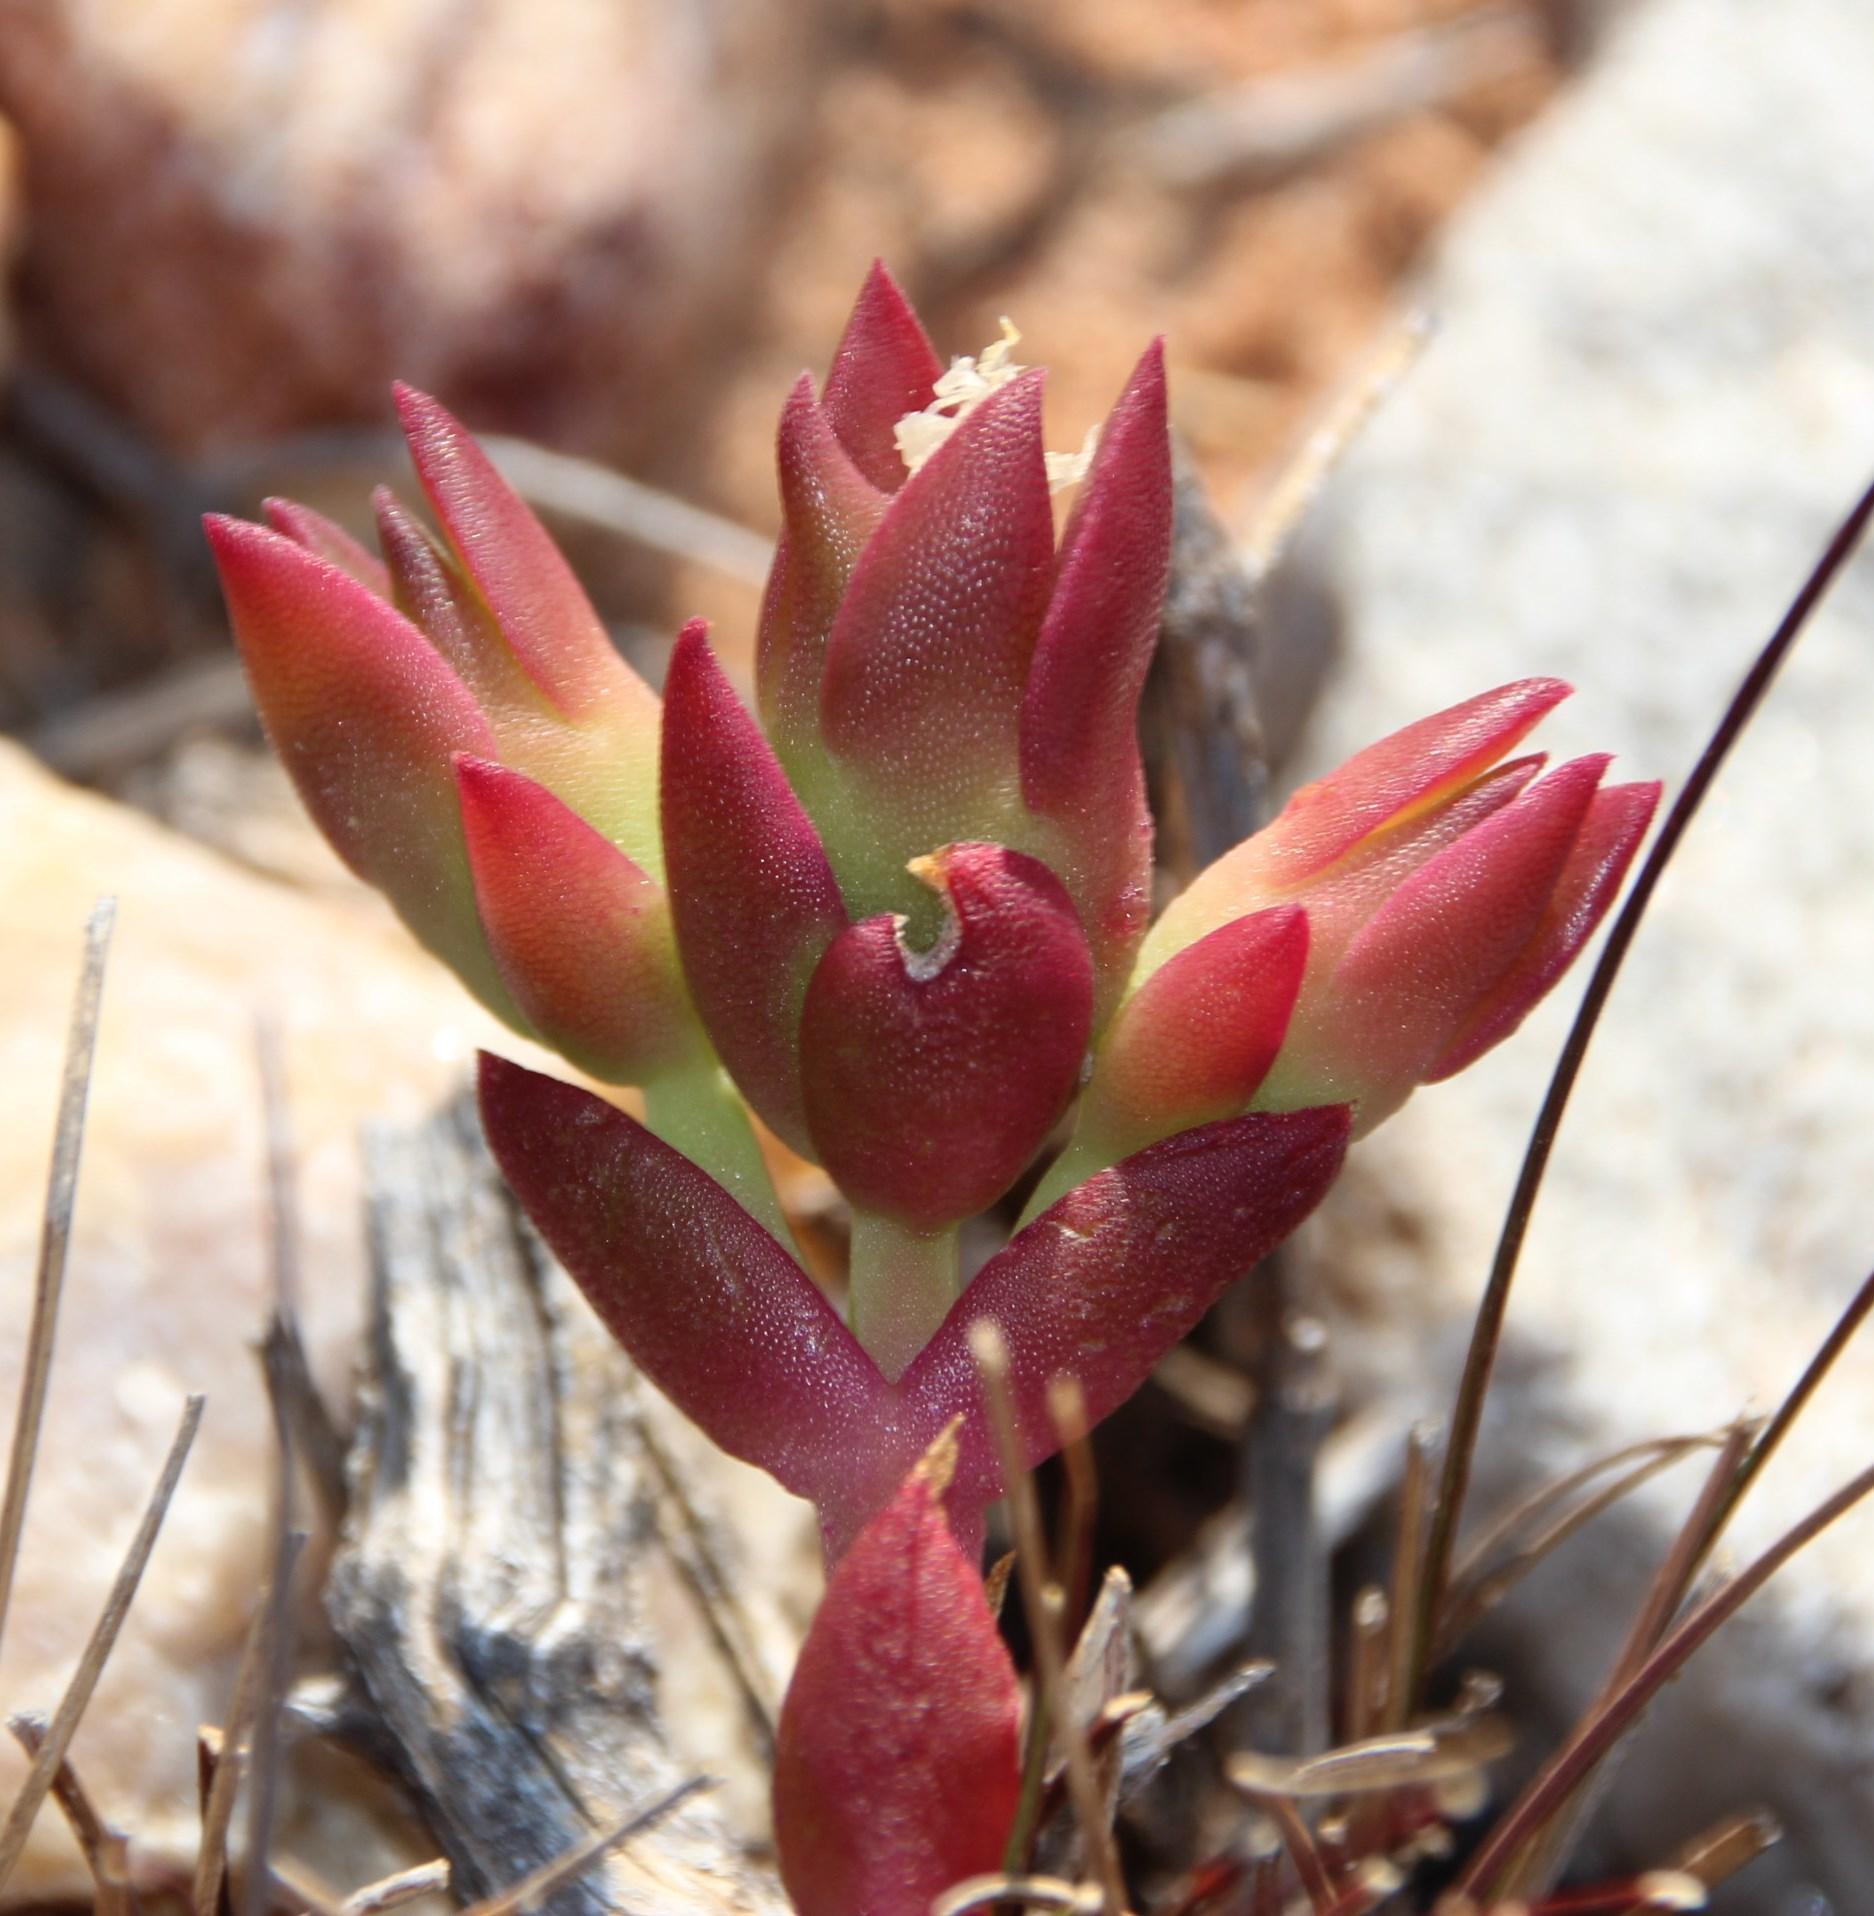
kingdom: Plantae
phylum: Tracheophyta
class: Magnoliopsida
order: Caryophyllales
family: Aizoaceae
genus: Mesembryanthemum
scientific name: Mesembryanthemum tortuosum
